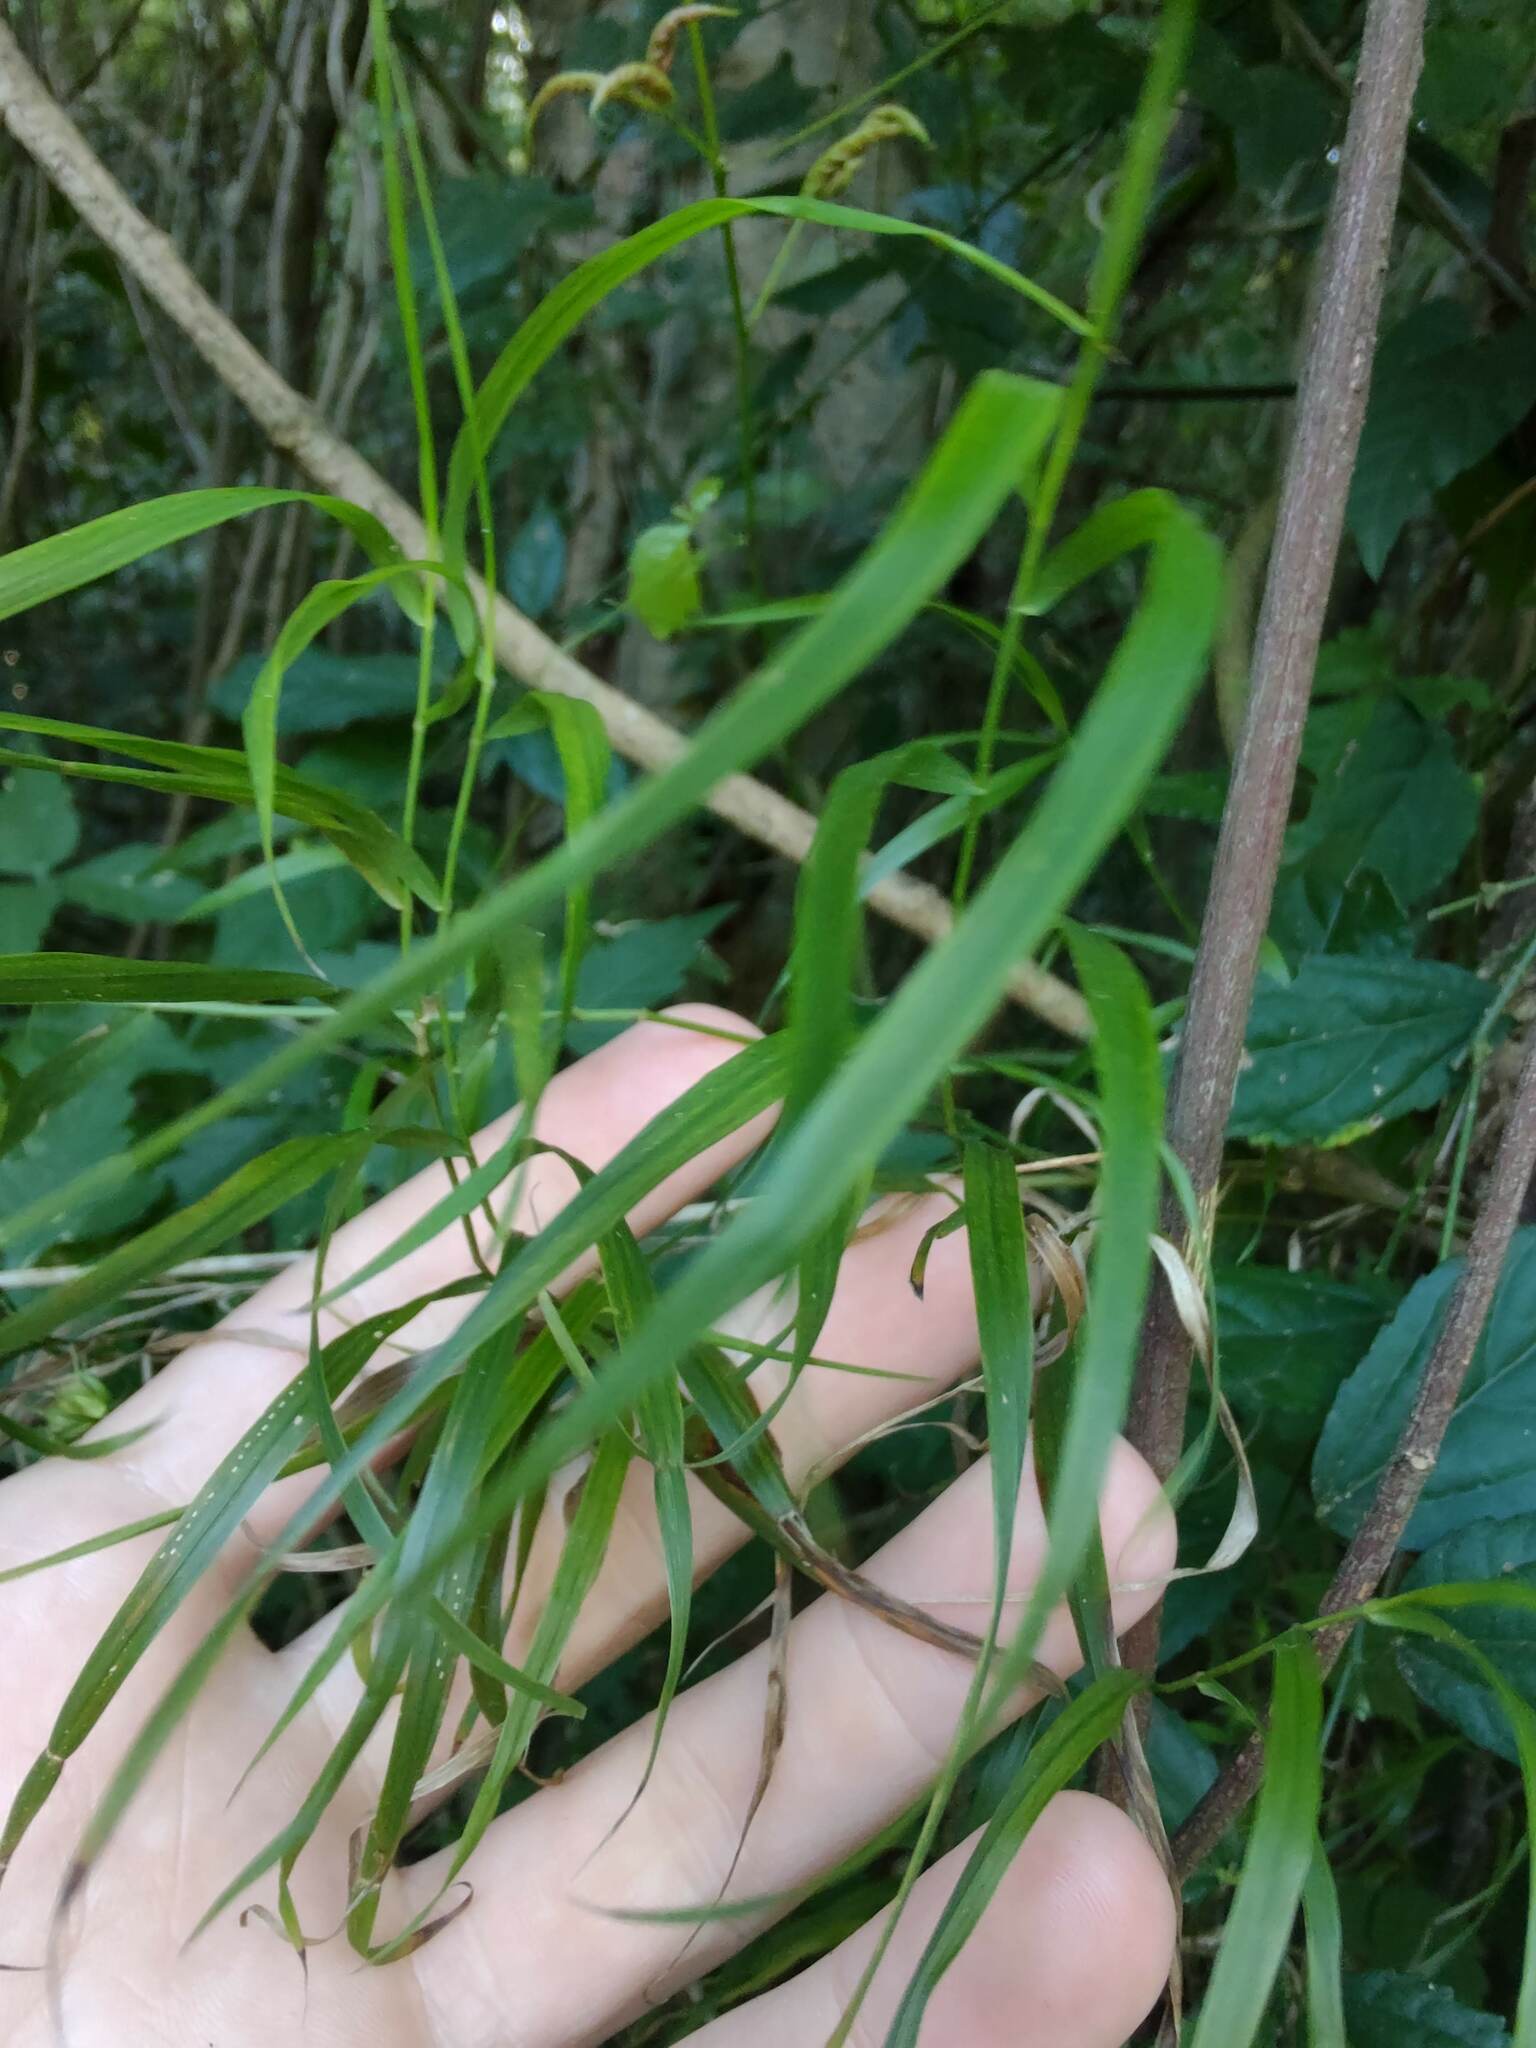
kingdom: Plantae
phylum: Tracheophyta
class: Liliopsida
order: Poales
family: Poaceae
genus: Melica
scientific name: Melica sarmentosa
